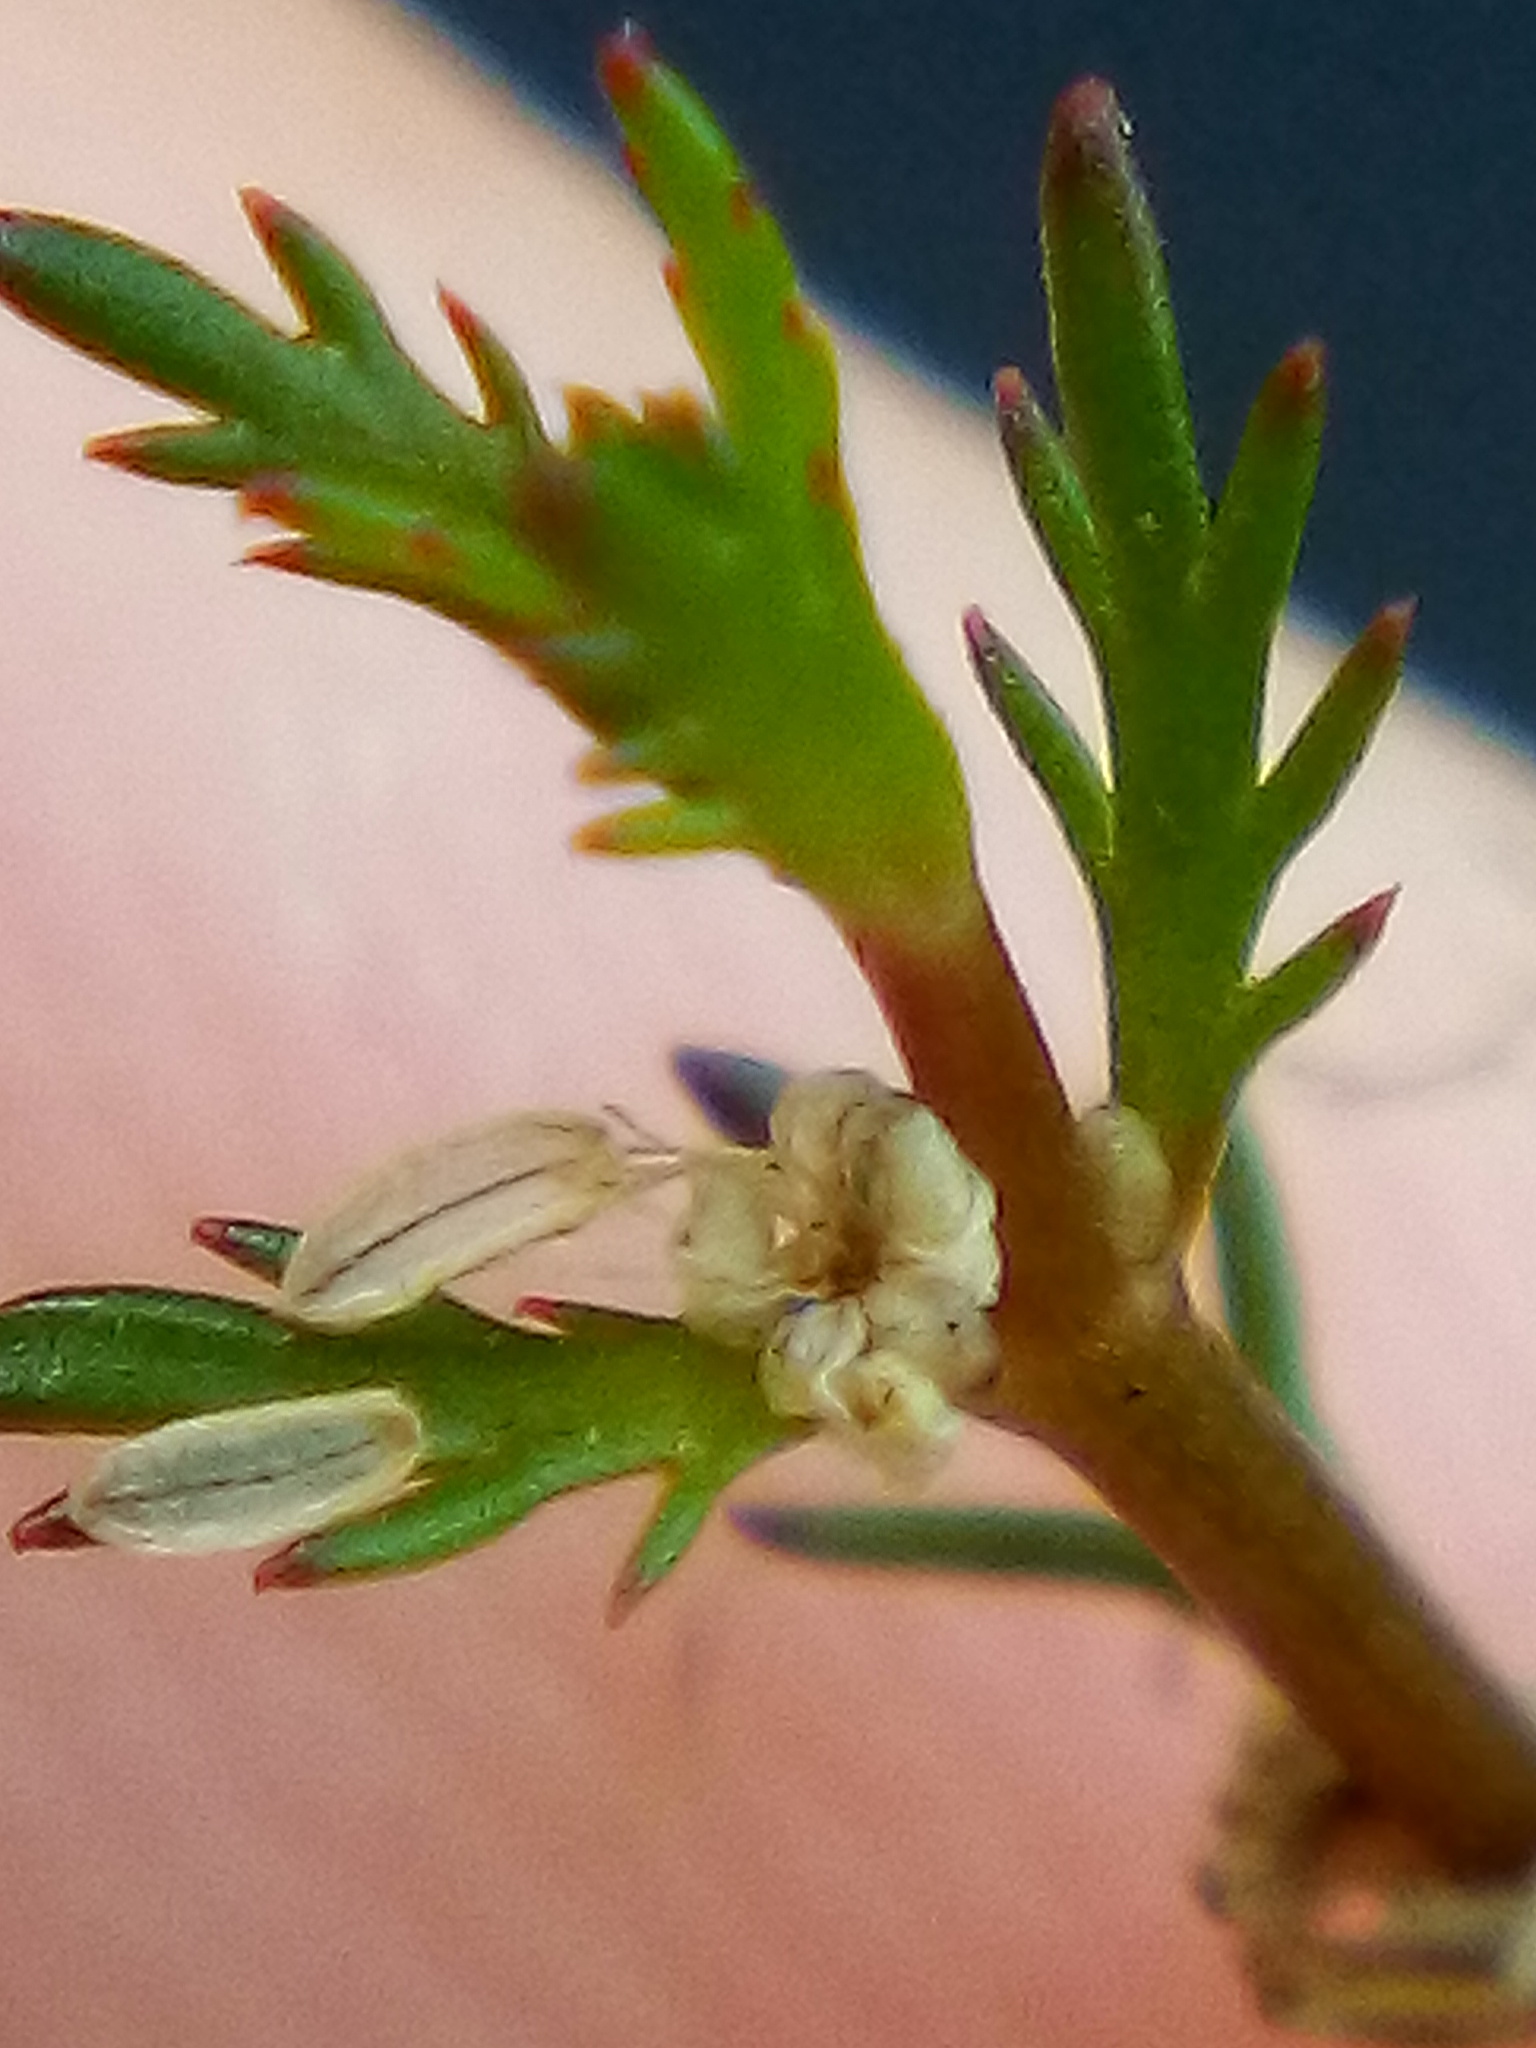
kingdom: Plantae
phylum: Tracheophyta
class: Magnoliopsida
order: Saxifragales
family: Haloragaceae
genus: Myriophyllum
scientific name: Myriophyllum propinquum
